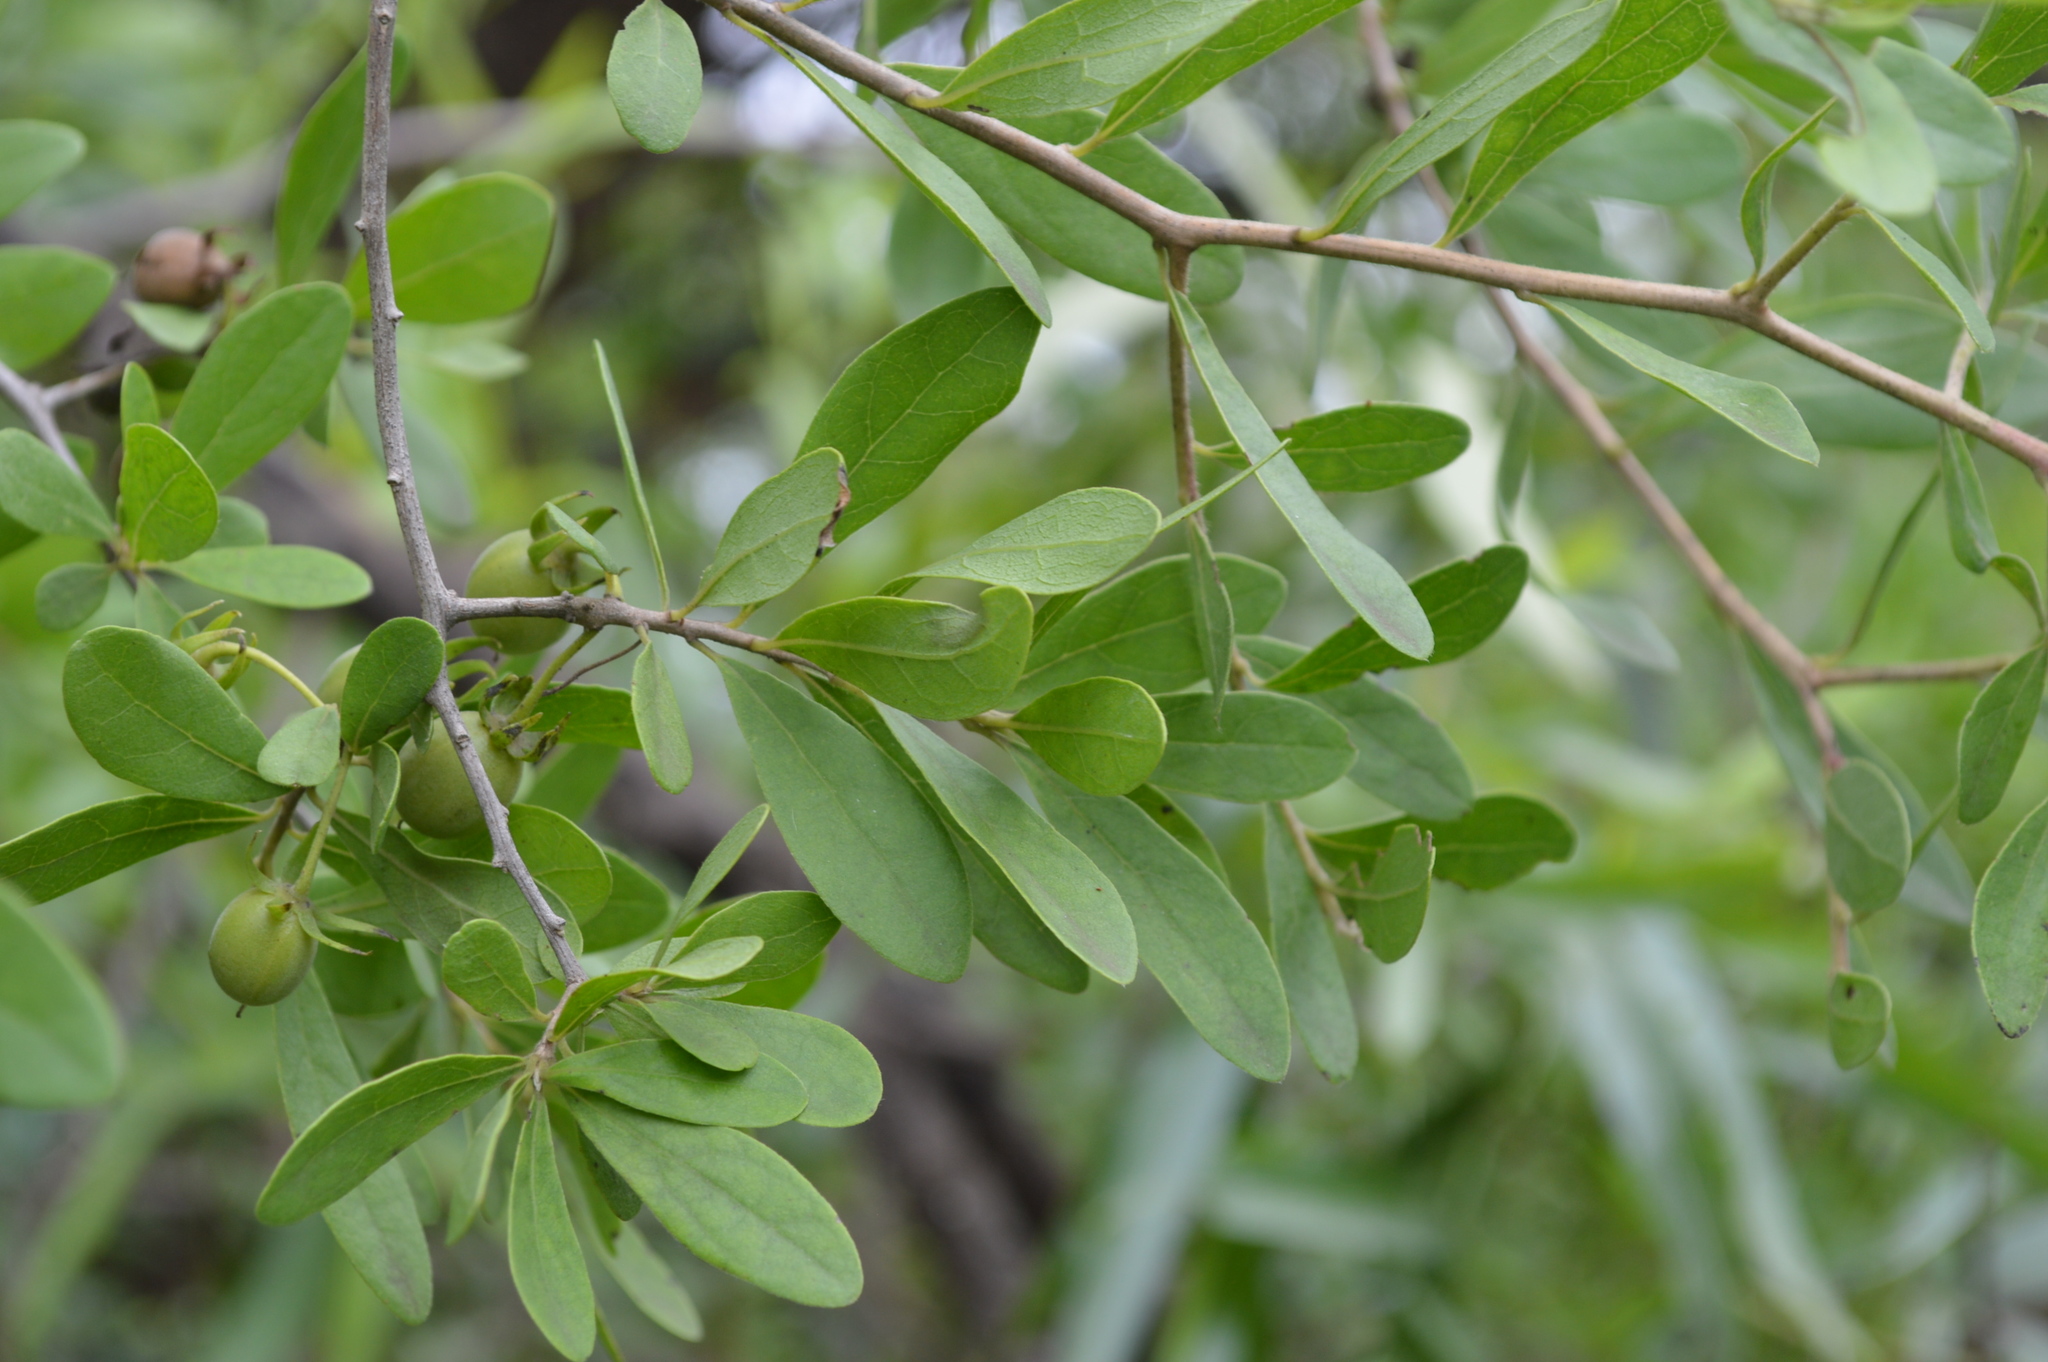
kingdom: Plantae
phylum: Tracheophyta
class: Magnoliopsida
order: Ericales
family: Ebenaceae
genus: Diospyros
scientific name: Diospyros lycioides
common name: Red star apple
